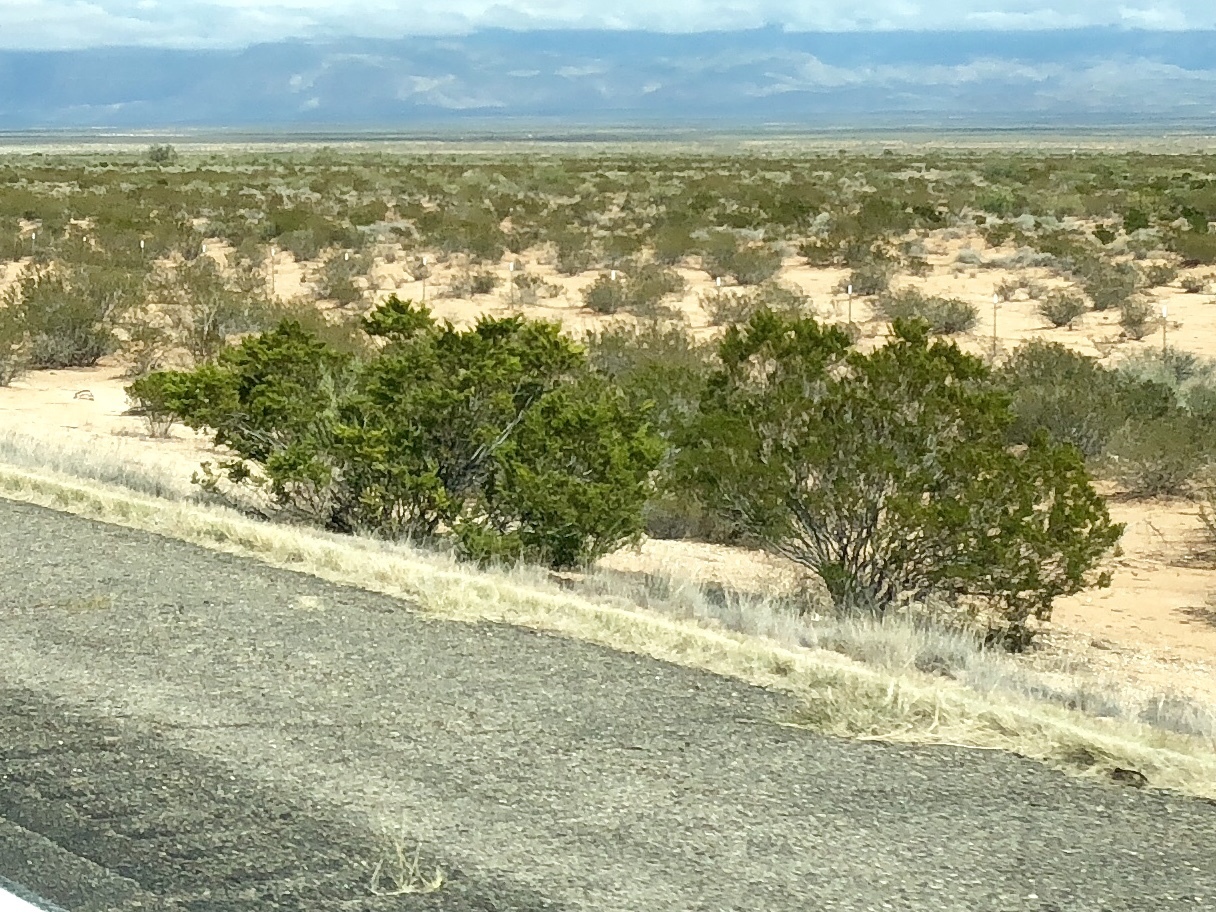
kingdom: Plantae
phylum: Tracheophyta
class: Magnoliopsida
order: Zygophyllales
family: Zygophyllaceae
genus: Larrea
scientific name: Larrea tridentata
